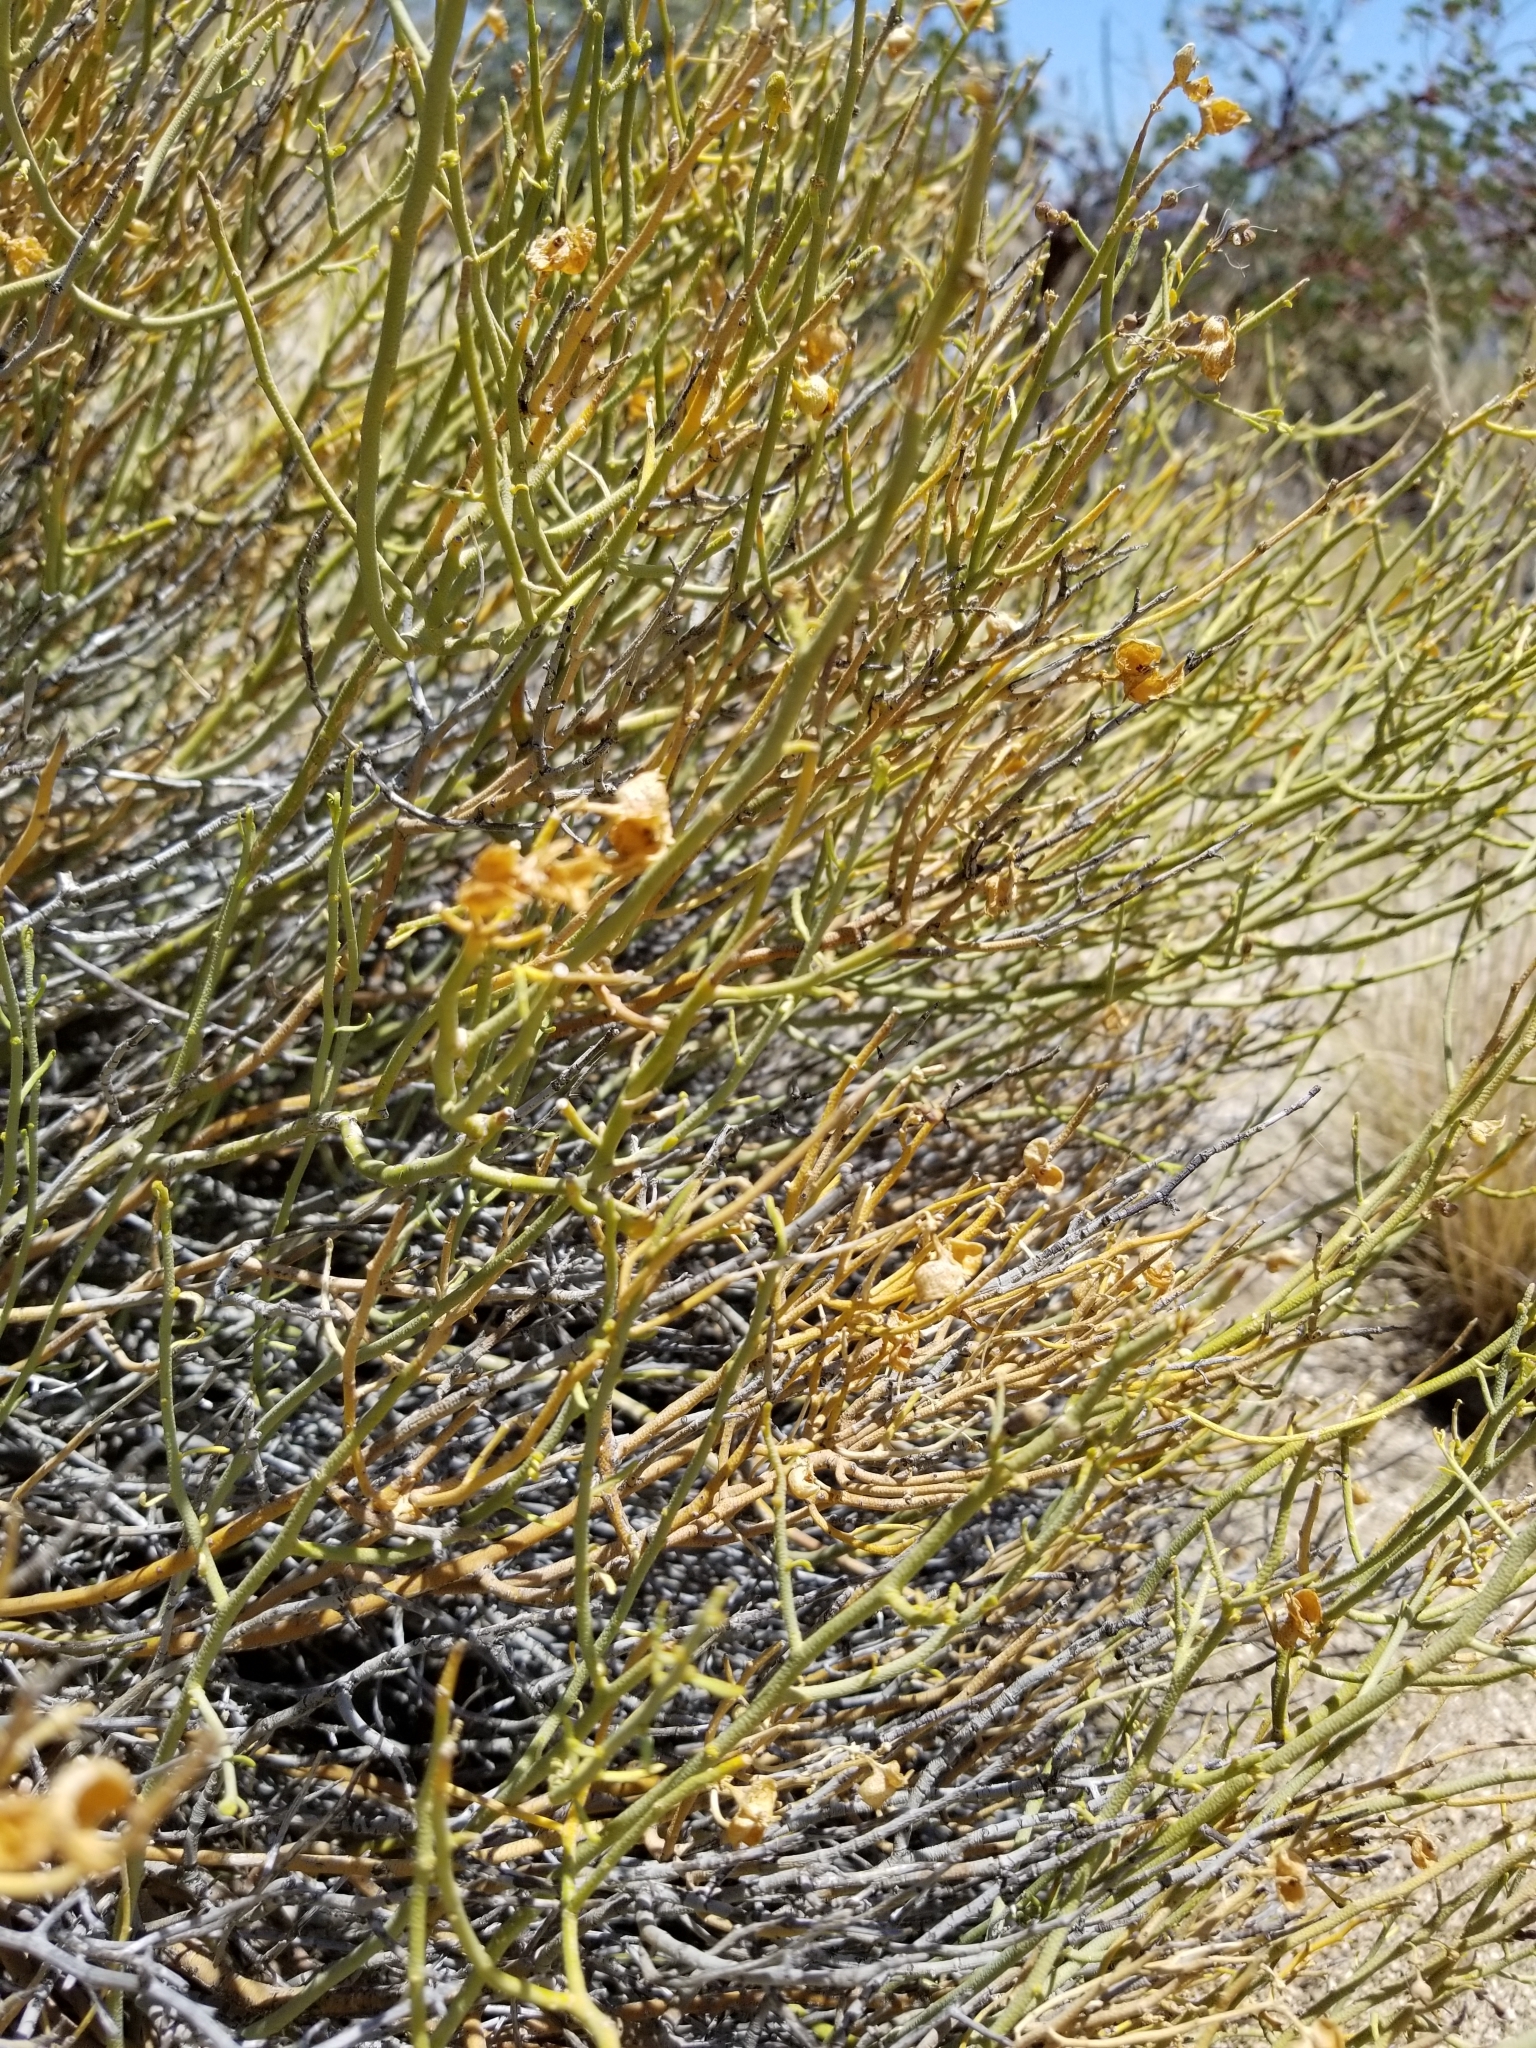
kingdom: Plantae
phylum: Tracheophyta
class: Magnoliopsida
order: Sapindales
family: Rutaceae
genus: Thamnosma
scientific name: Thamnosma montana
